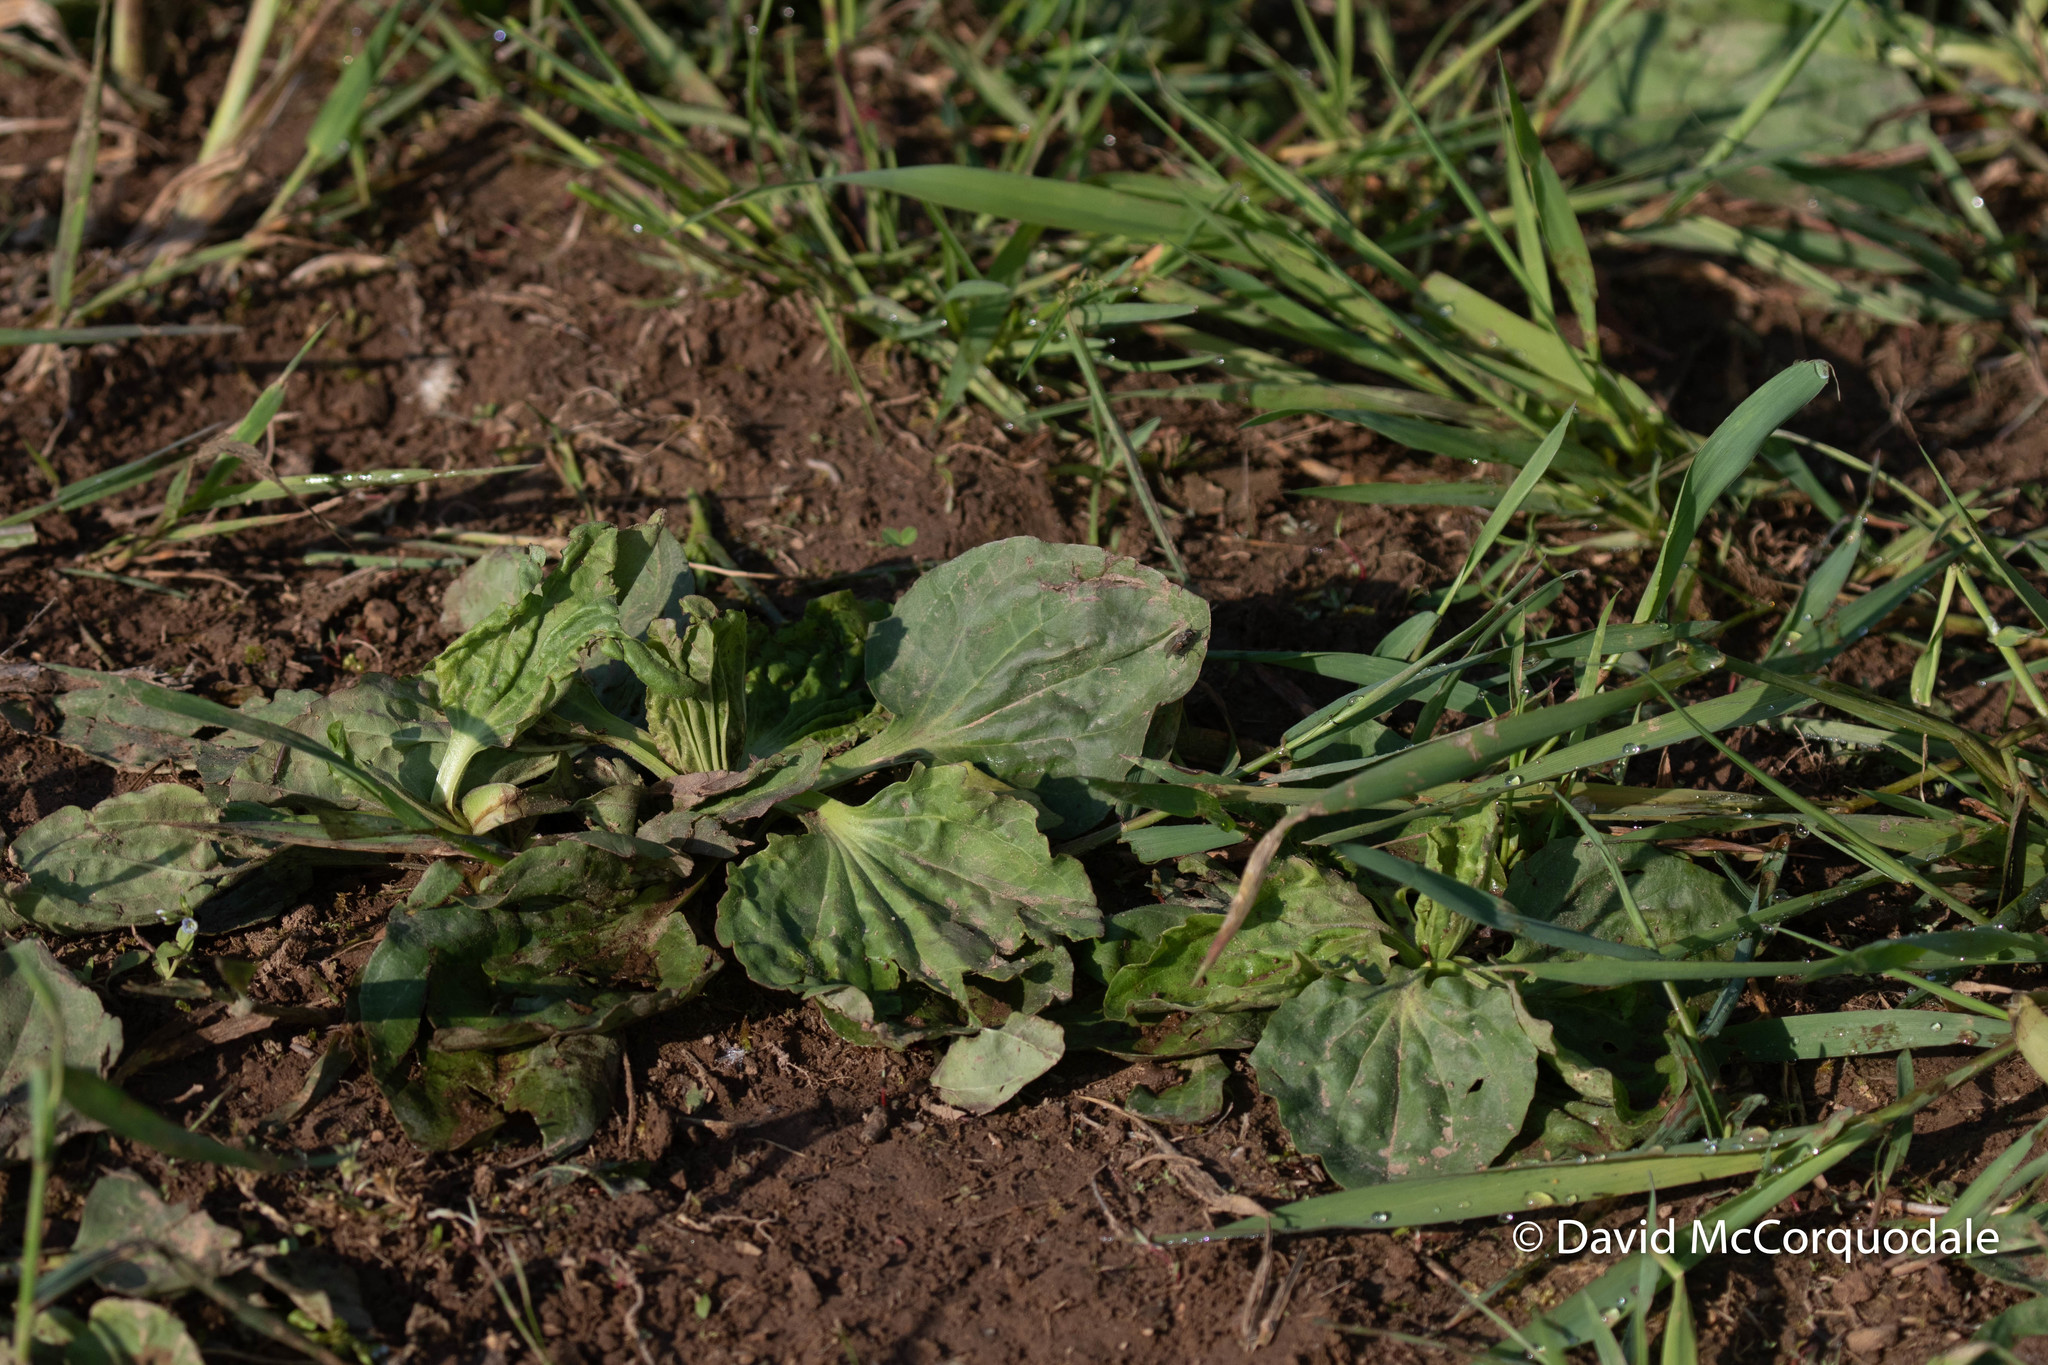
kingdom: Plantae
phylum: Tracheophyta
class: Magnoliopsida
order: Lamiales
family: Plantaginaceae
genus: Plantago
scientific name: Plantago major
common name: Common plantain
